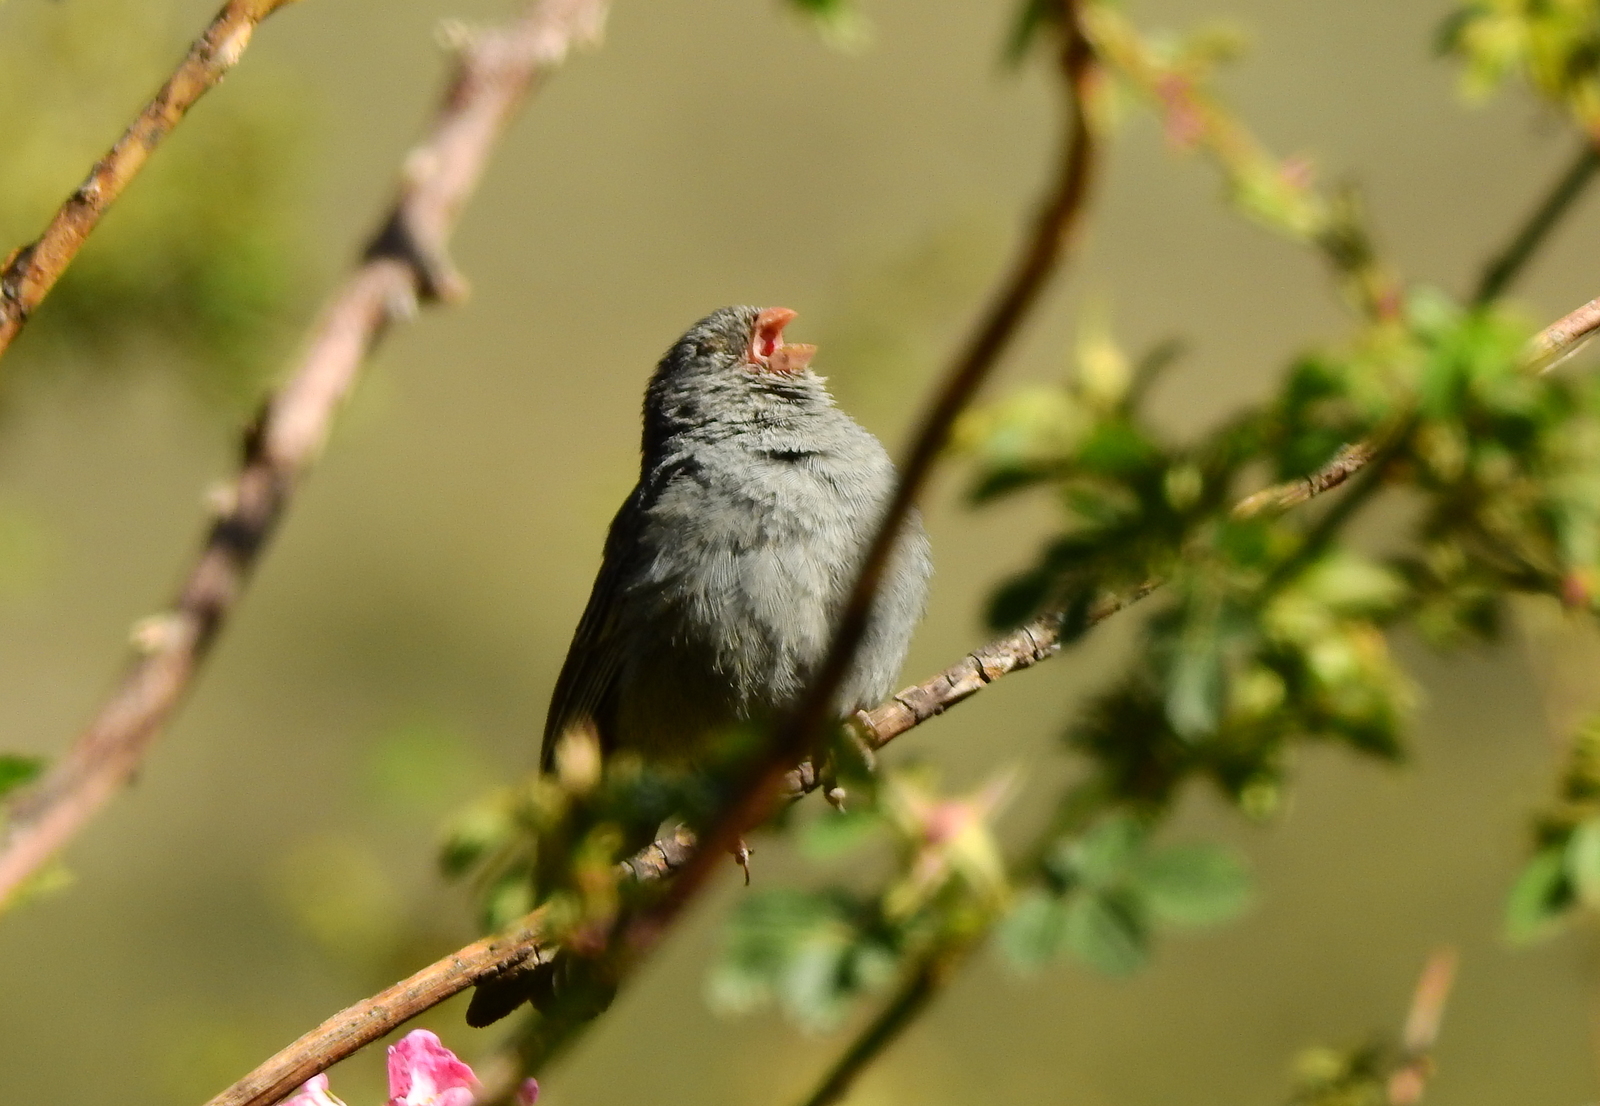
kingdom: Animalia
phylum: Chordata
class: Aves
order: Passeriformes
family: Thraupidae
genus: Catamenia
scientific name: Catamenia inornata
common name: Plain-colored seedeater
